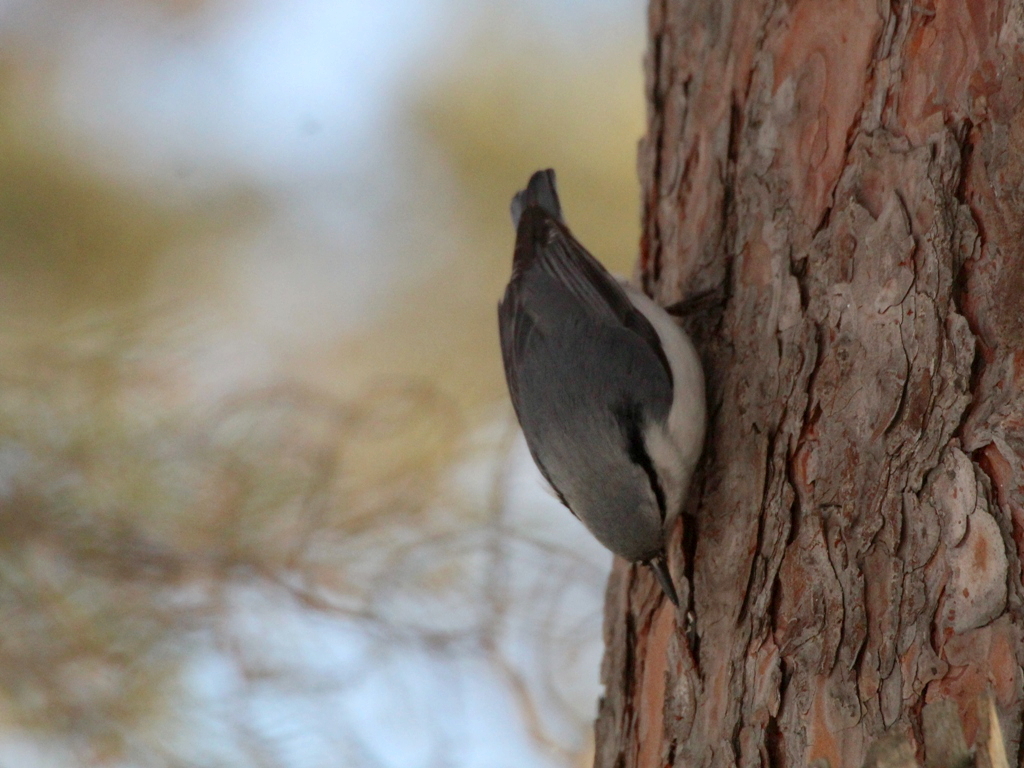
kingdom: Animalia
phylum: Chordata
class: Aves
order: Passeriformes
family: Sittidae
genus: Sitta
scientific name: Sitta europaea
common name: Eurasian nuthatch
